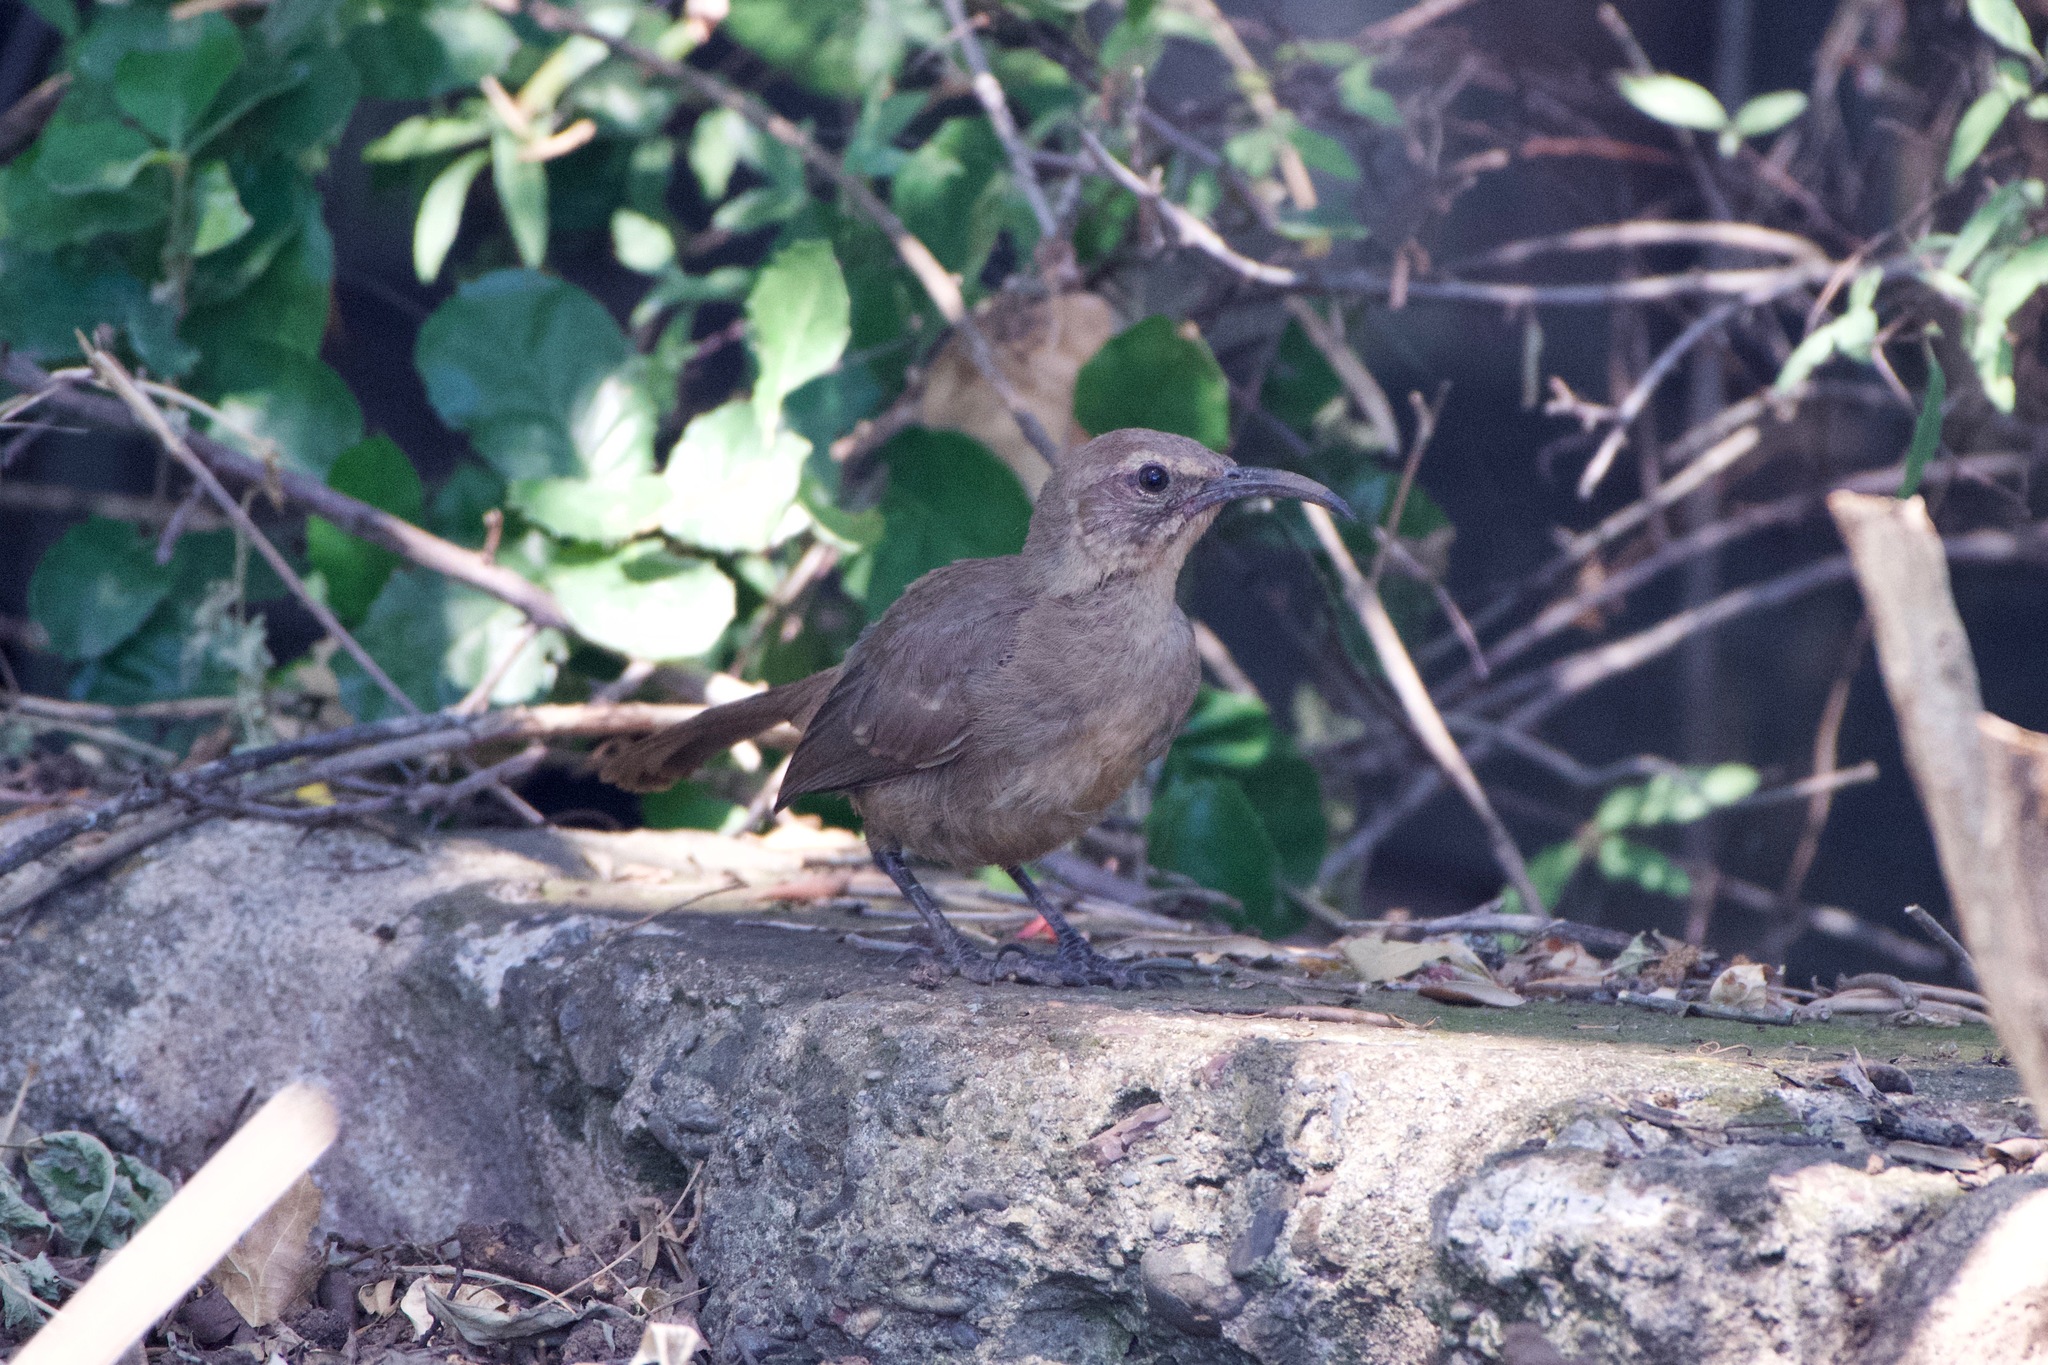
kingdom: Animalia
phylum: Chordata
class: Aves
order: Passeriformes
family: Mimidae
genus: Toxostoma
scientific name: Toxostoma redivivum
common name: California thrasher
